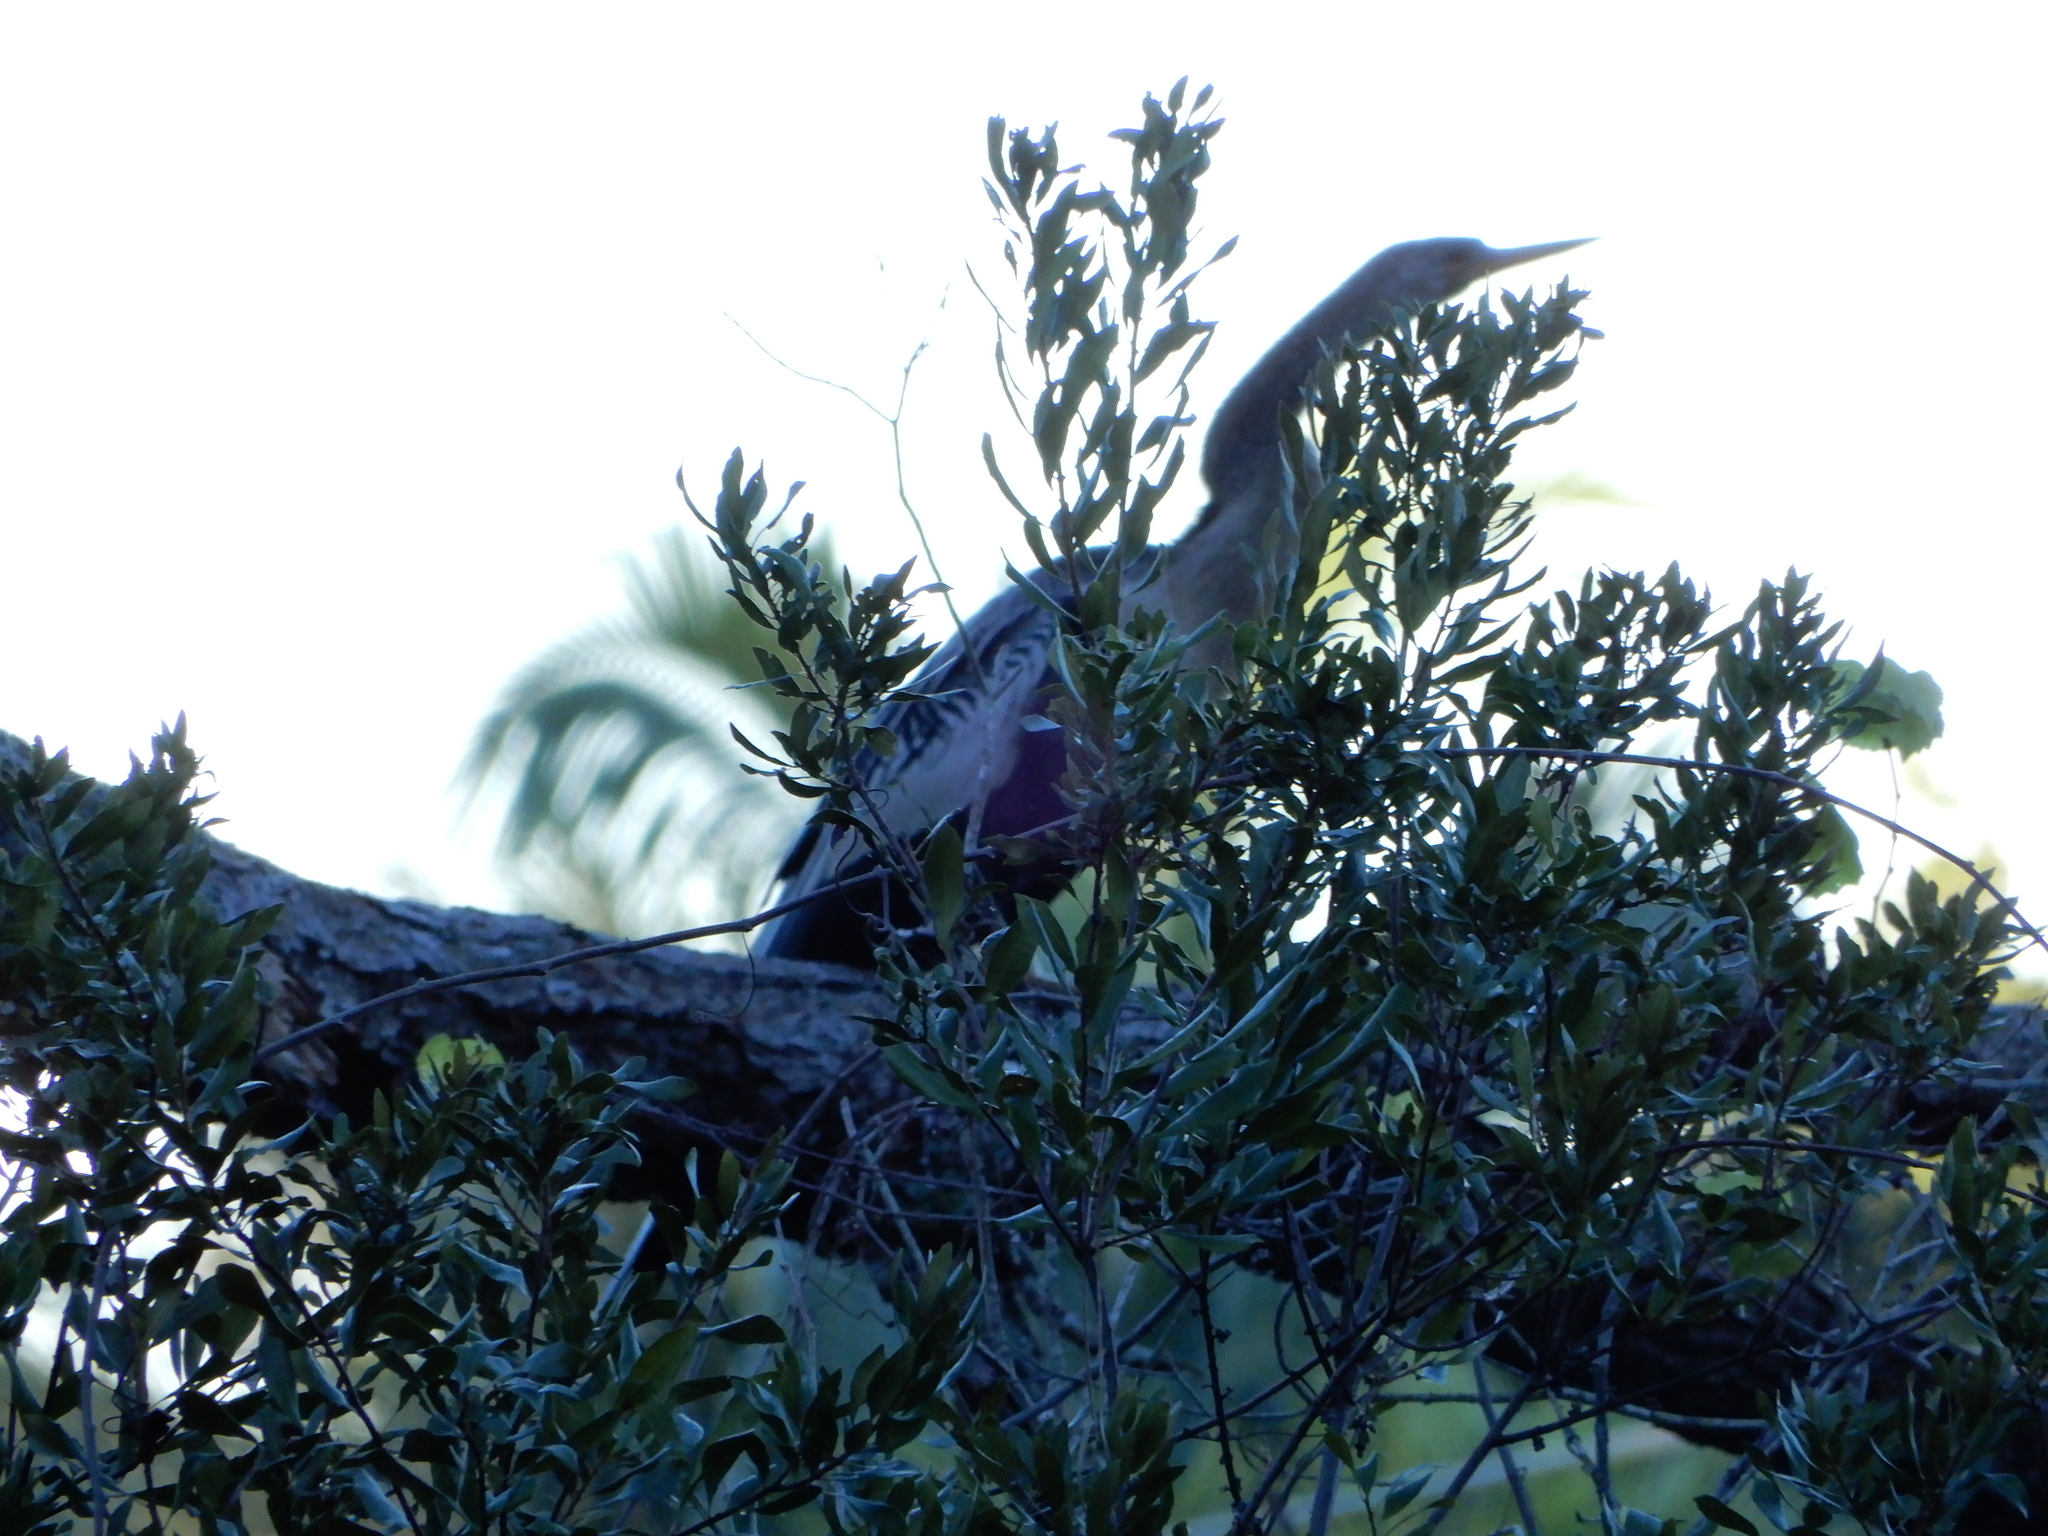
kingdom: Animalia
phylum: Chordata
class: Aves
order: Suliformes
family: Anhingidae
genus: Anhinga
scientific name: Anhinga anhinga
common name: Anhinga
